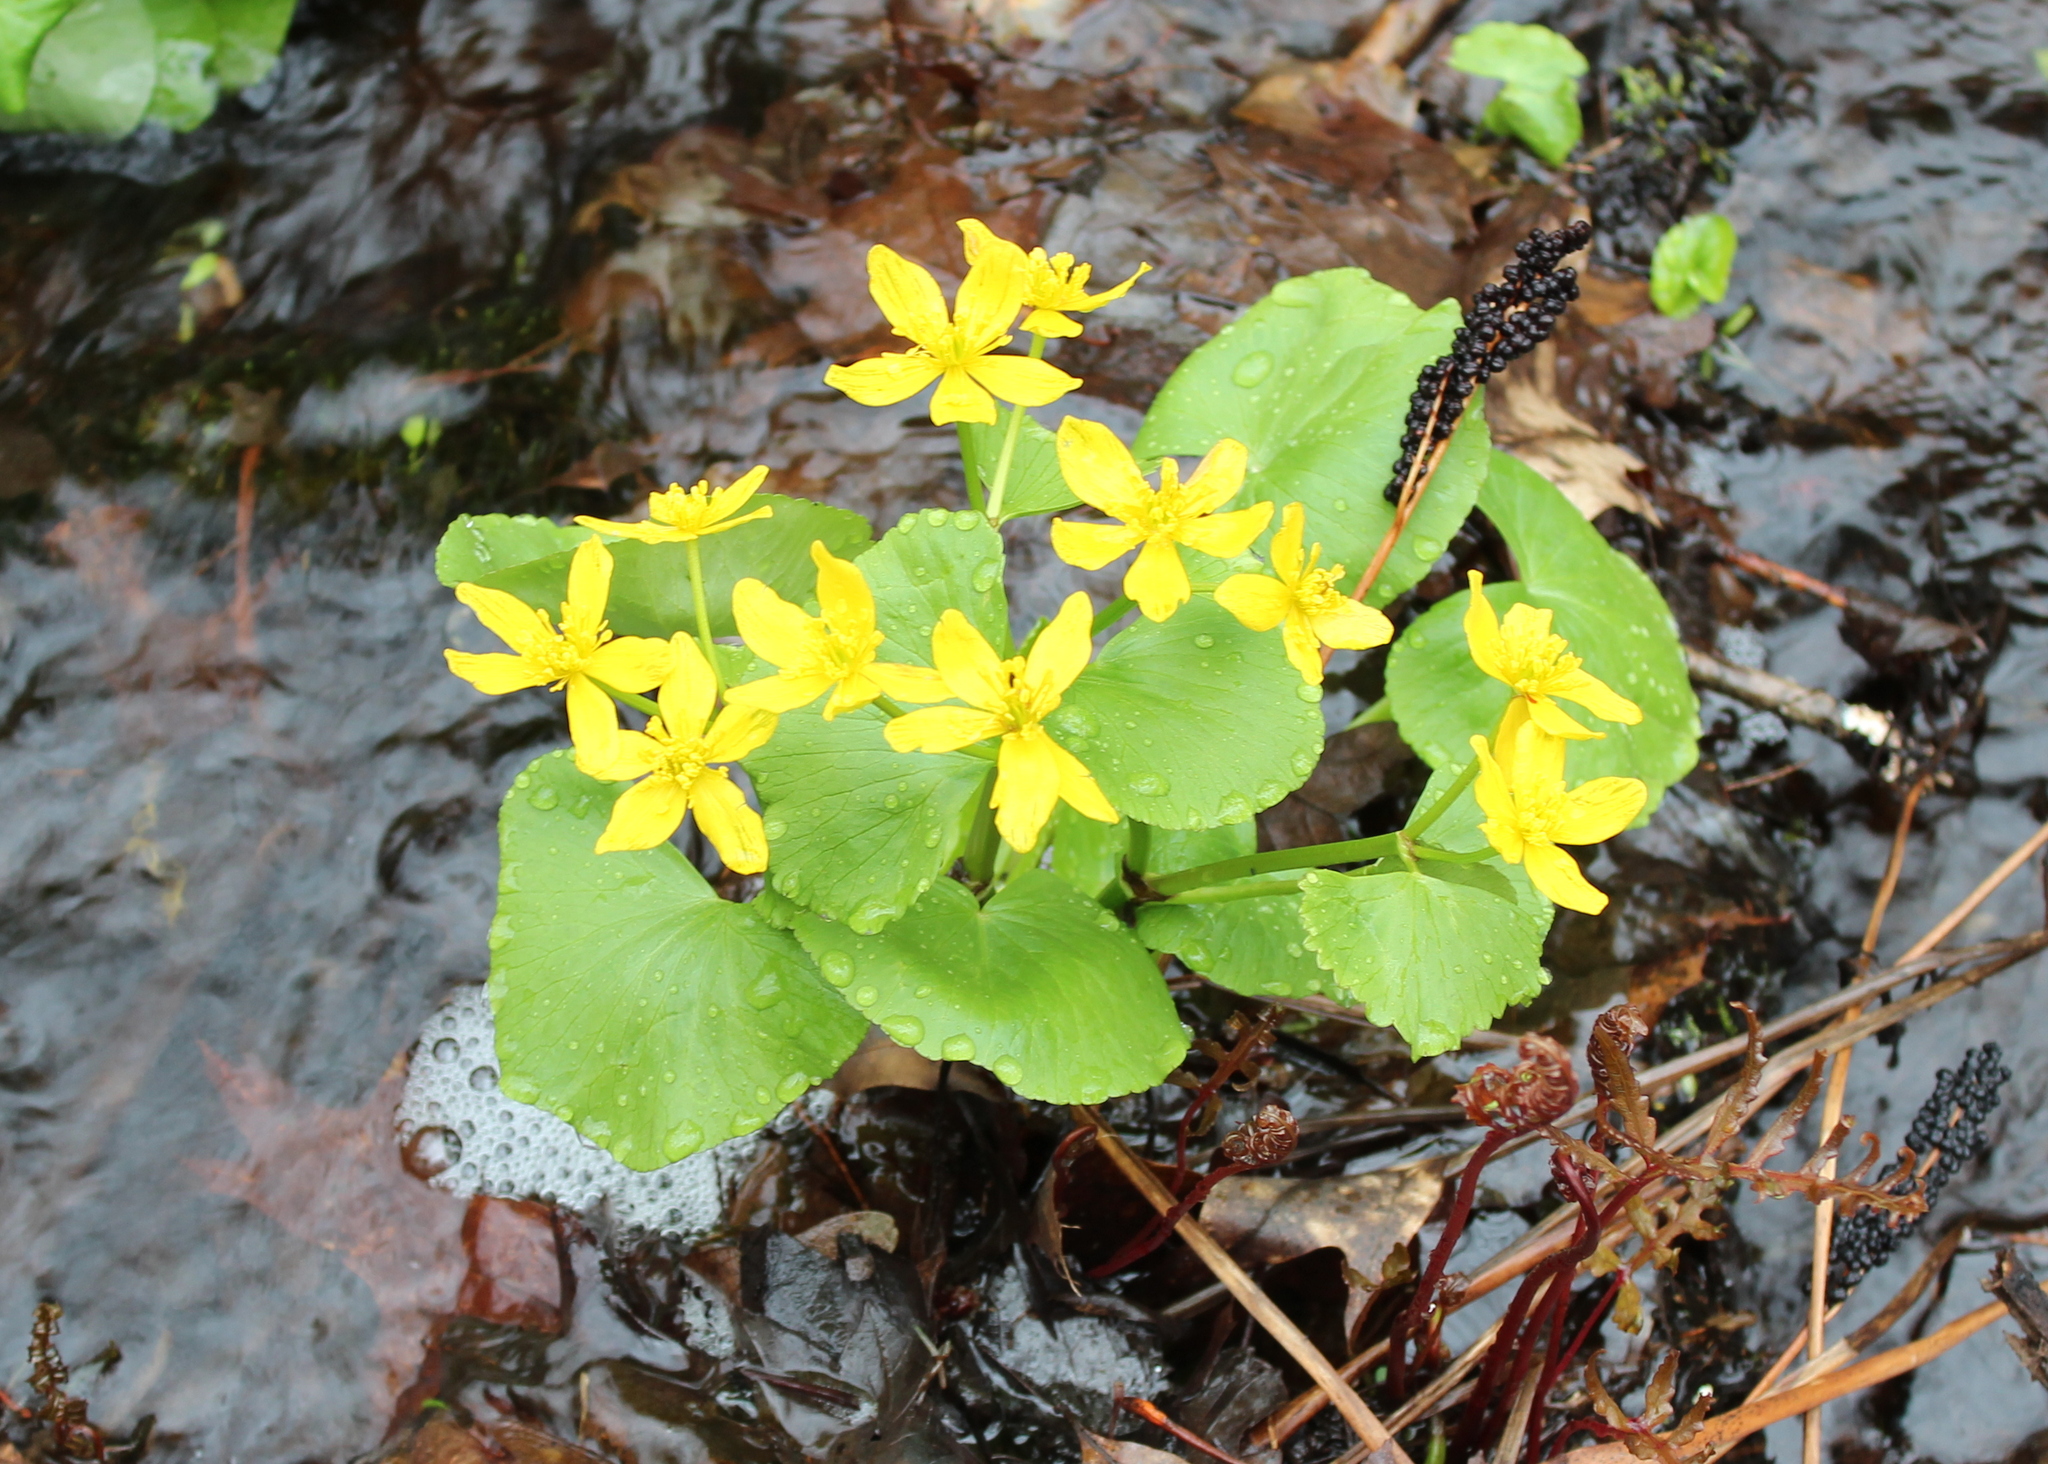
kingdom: Plantae
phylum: Tracheophyta
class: Magnoliopsida
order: Ranunculales
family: Ranunculaceae
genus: Caltha
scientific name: Caltha palustris
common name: Marsh marigold
